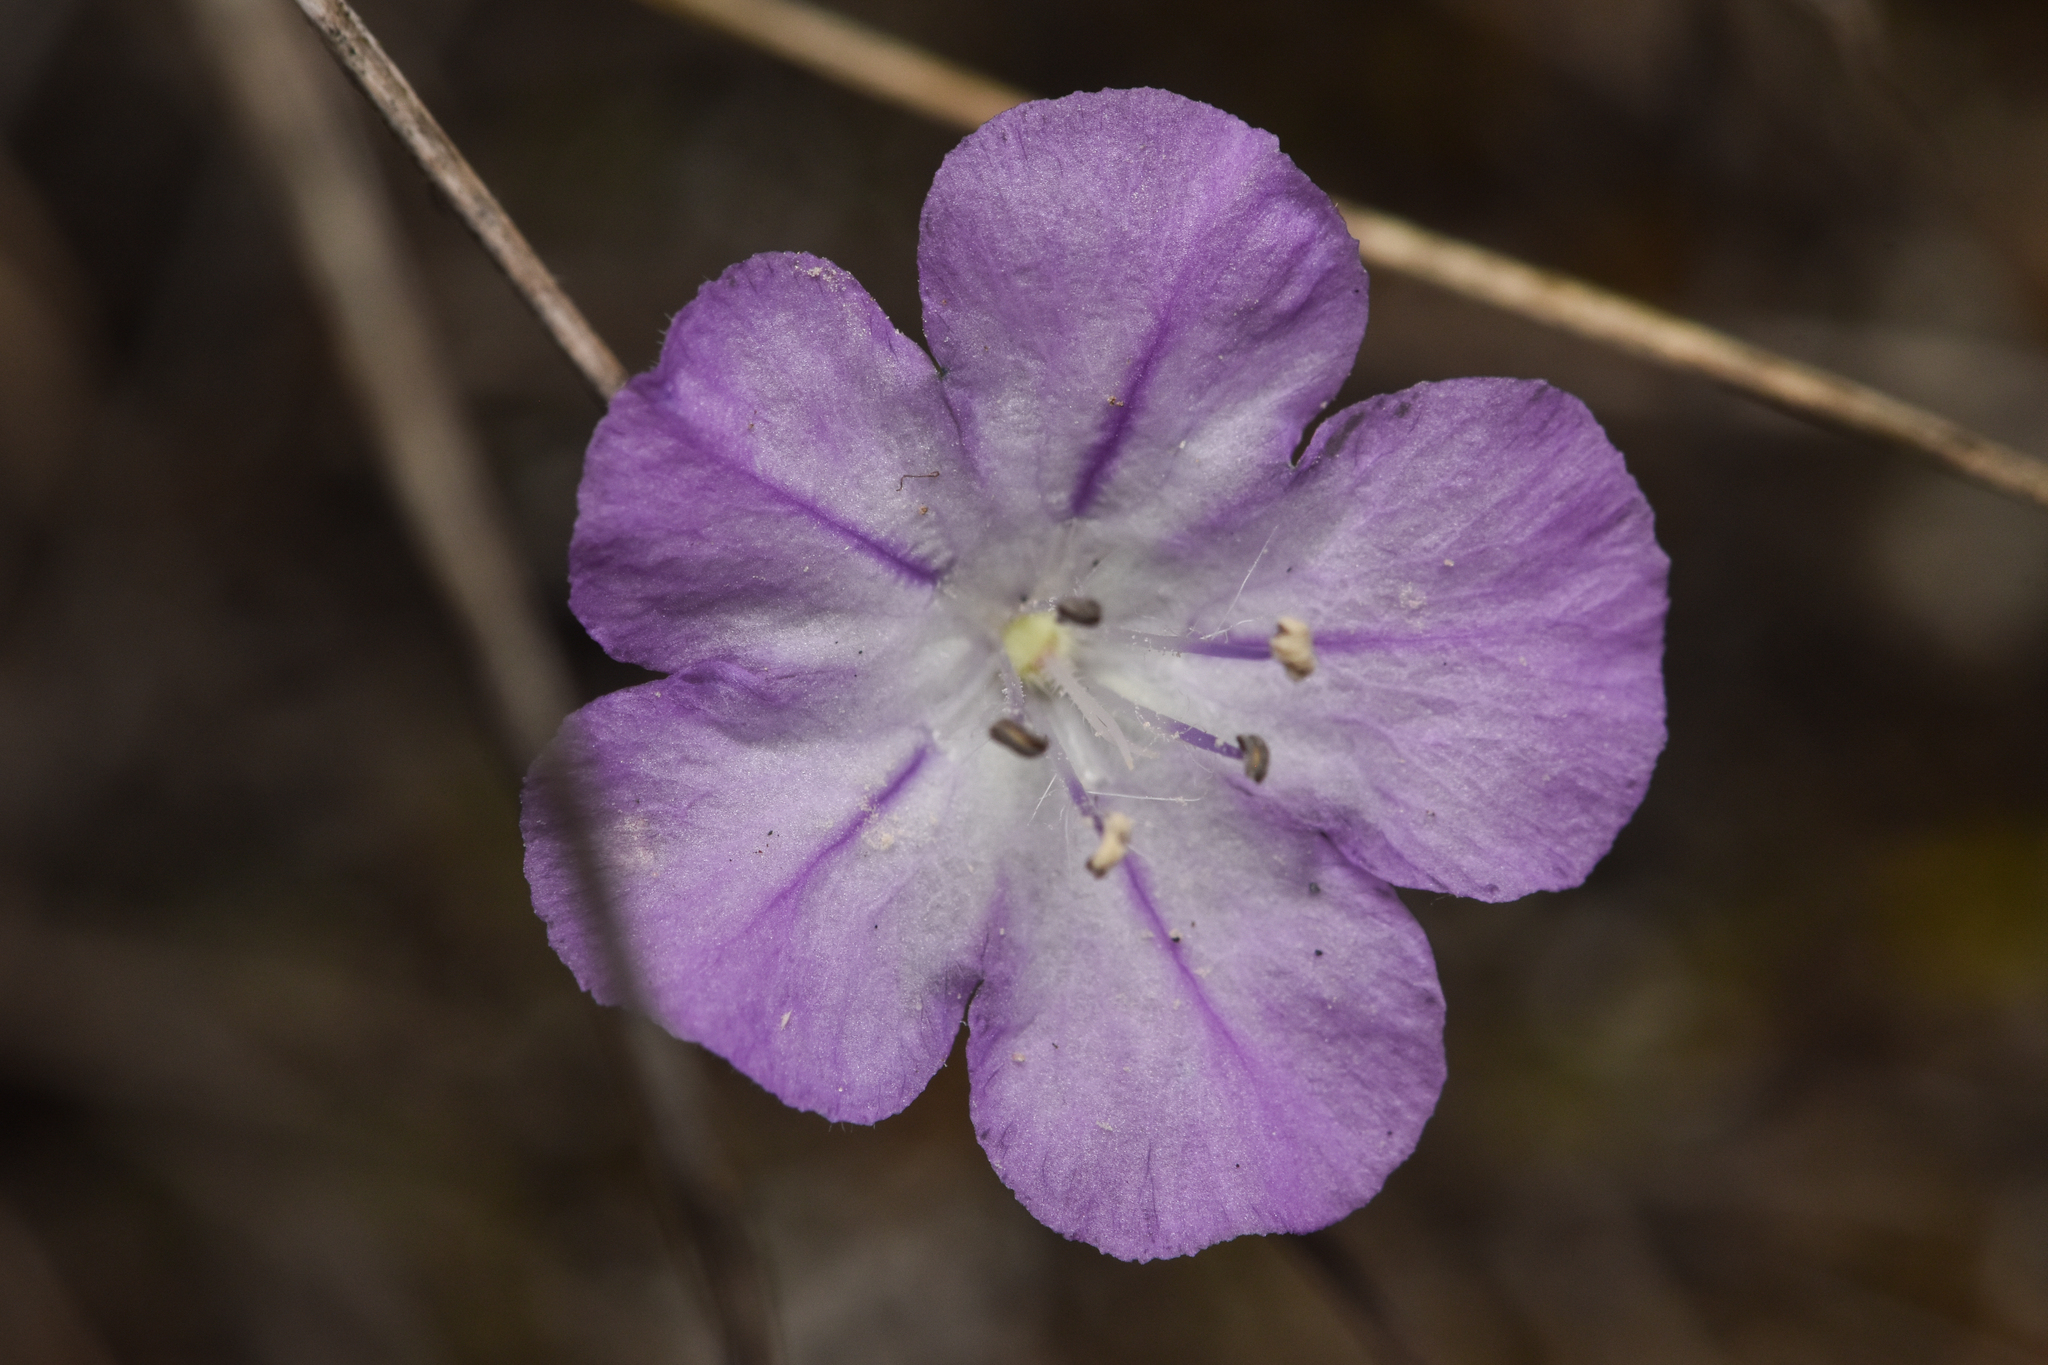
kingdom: Plantae
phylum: Tracheophyta
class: Magnoliopsida
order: Boraginales
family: Hydrophyllaceae
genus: Phacelia
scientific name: Phacelia linearis
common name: Linear-leaved phacelia
